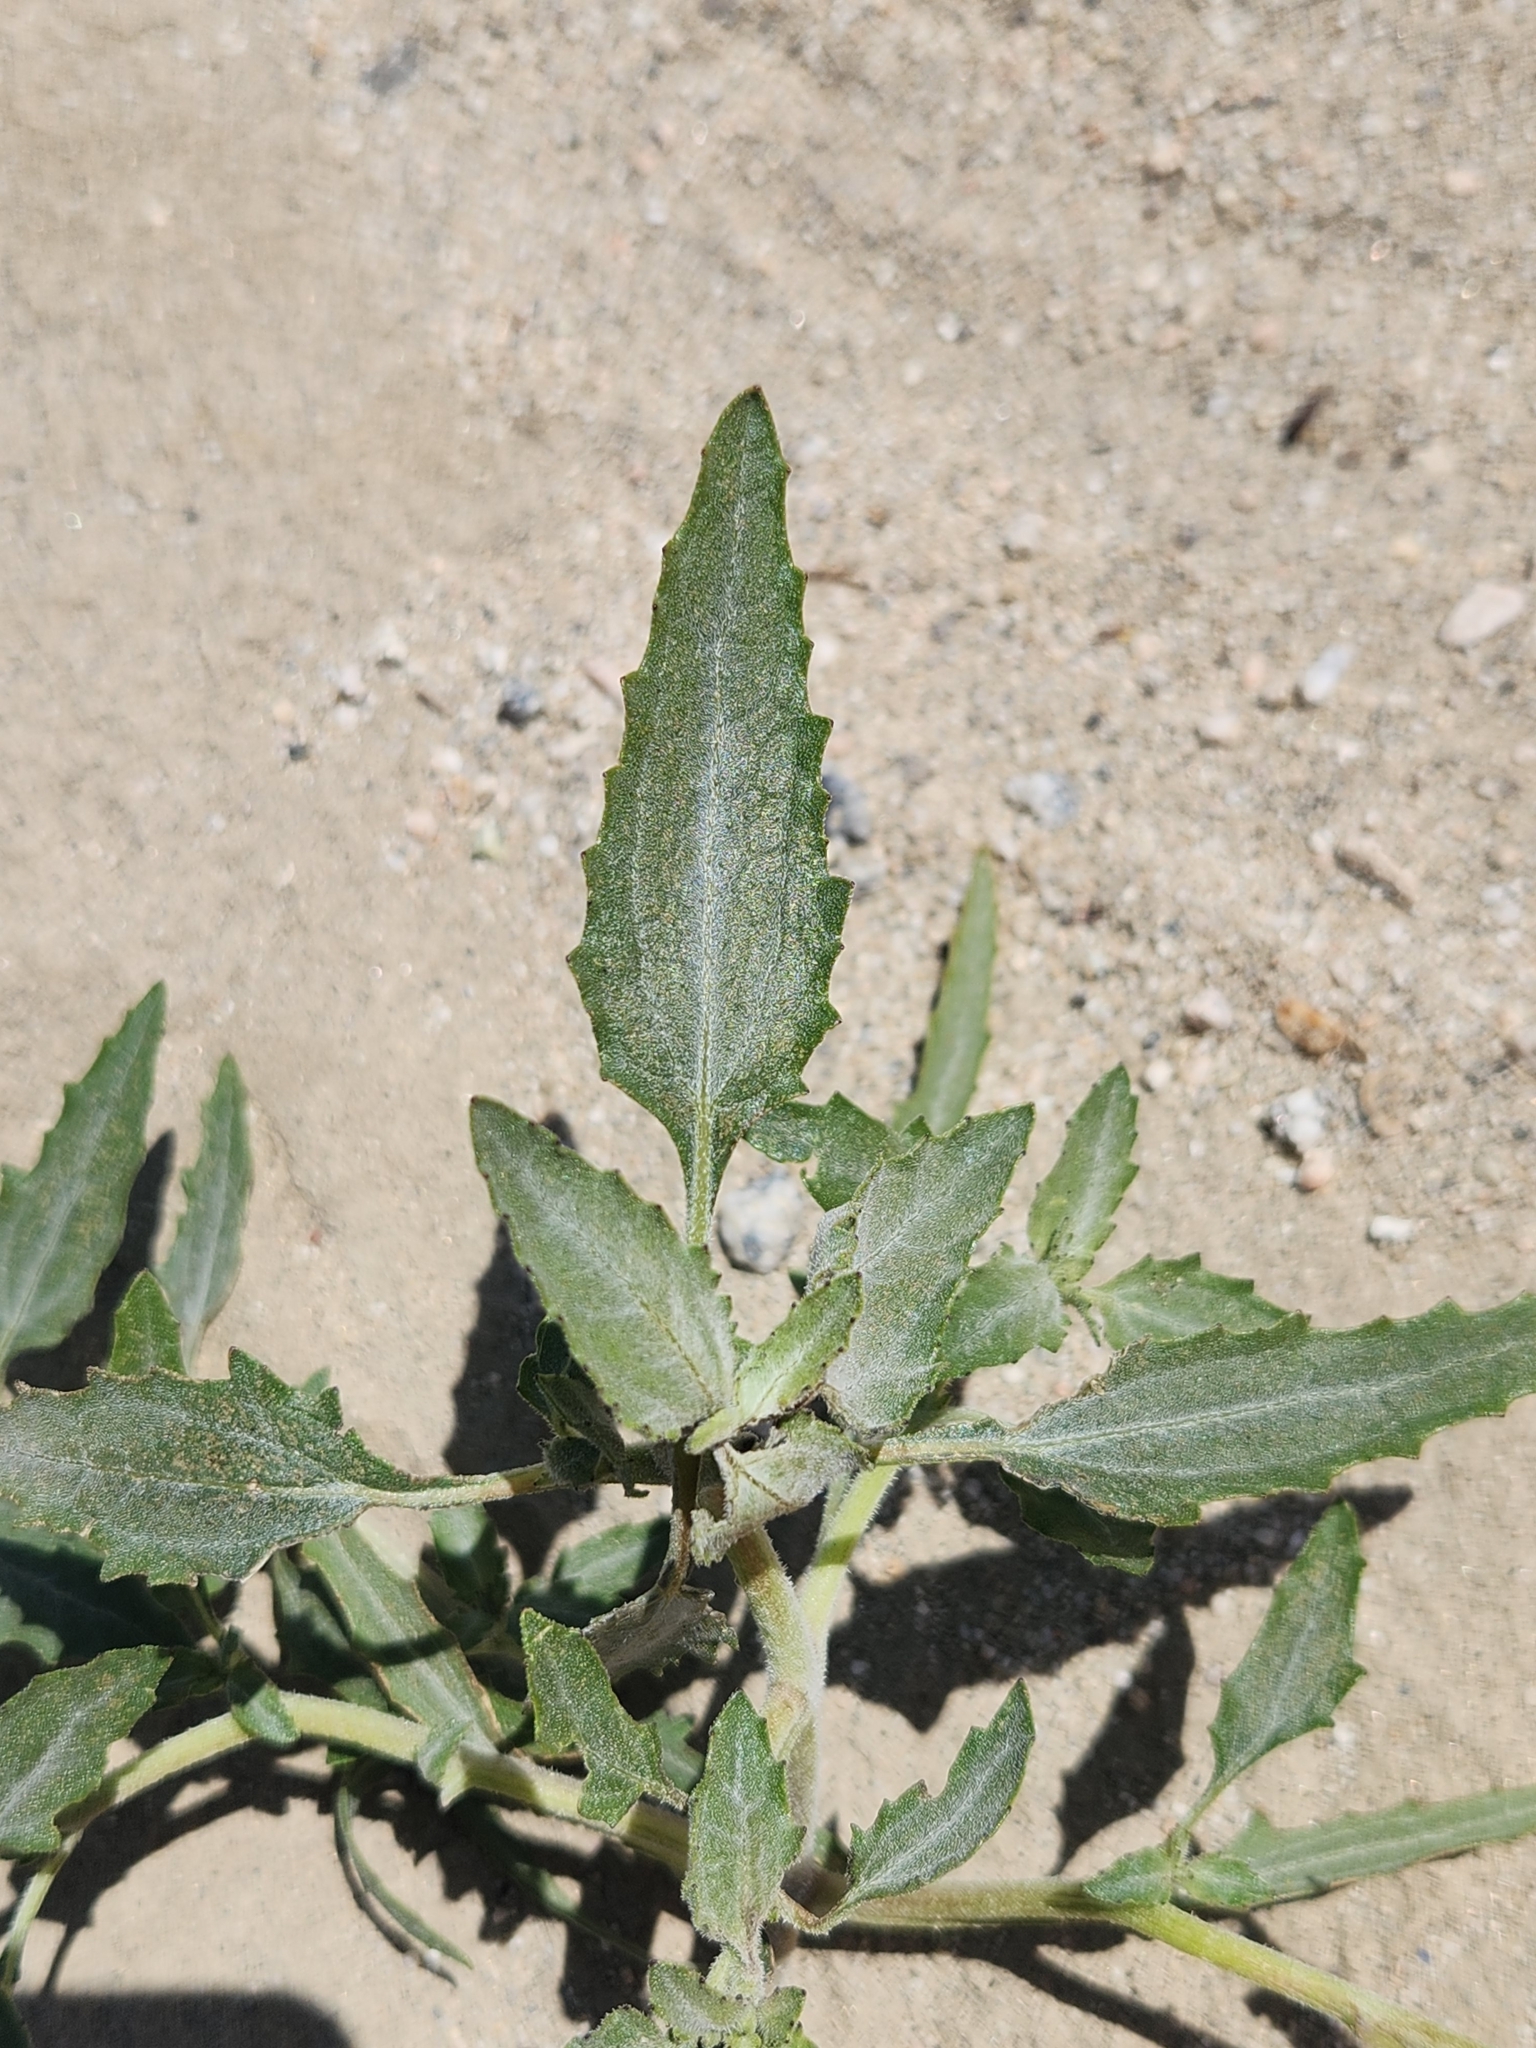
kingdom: Plantae
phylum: Tracheophyta
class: Magnoliopsida
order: Asterales
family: Asteraceae
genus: Dicoria
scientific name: Dicoria canescens
